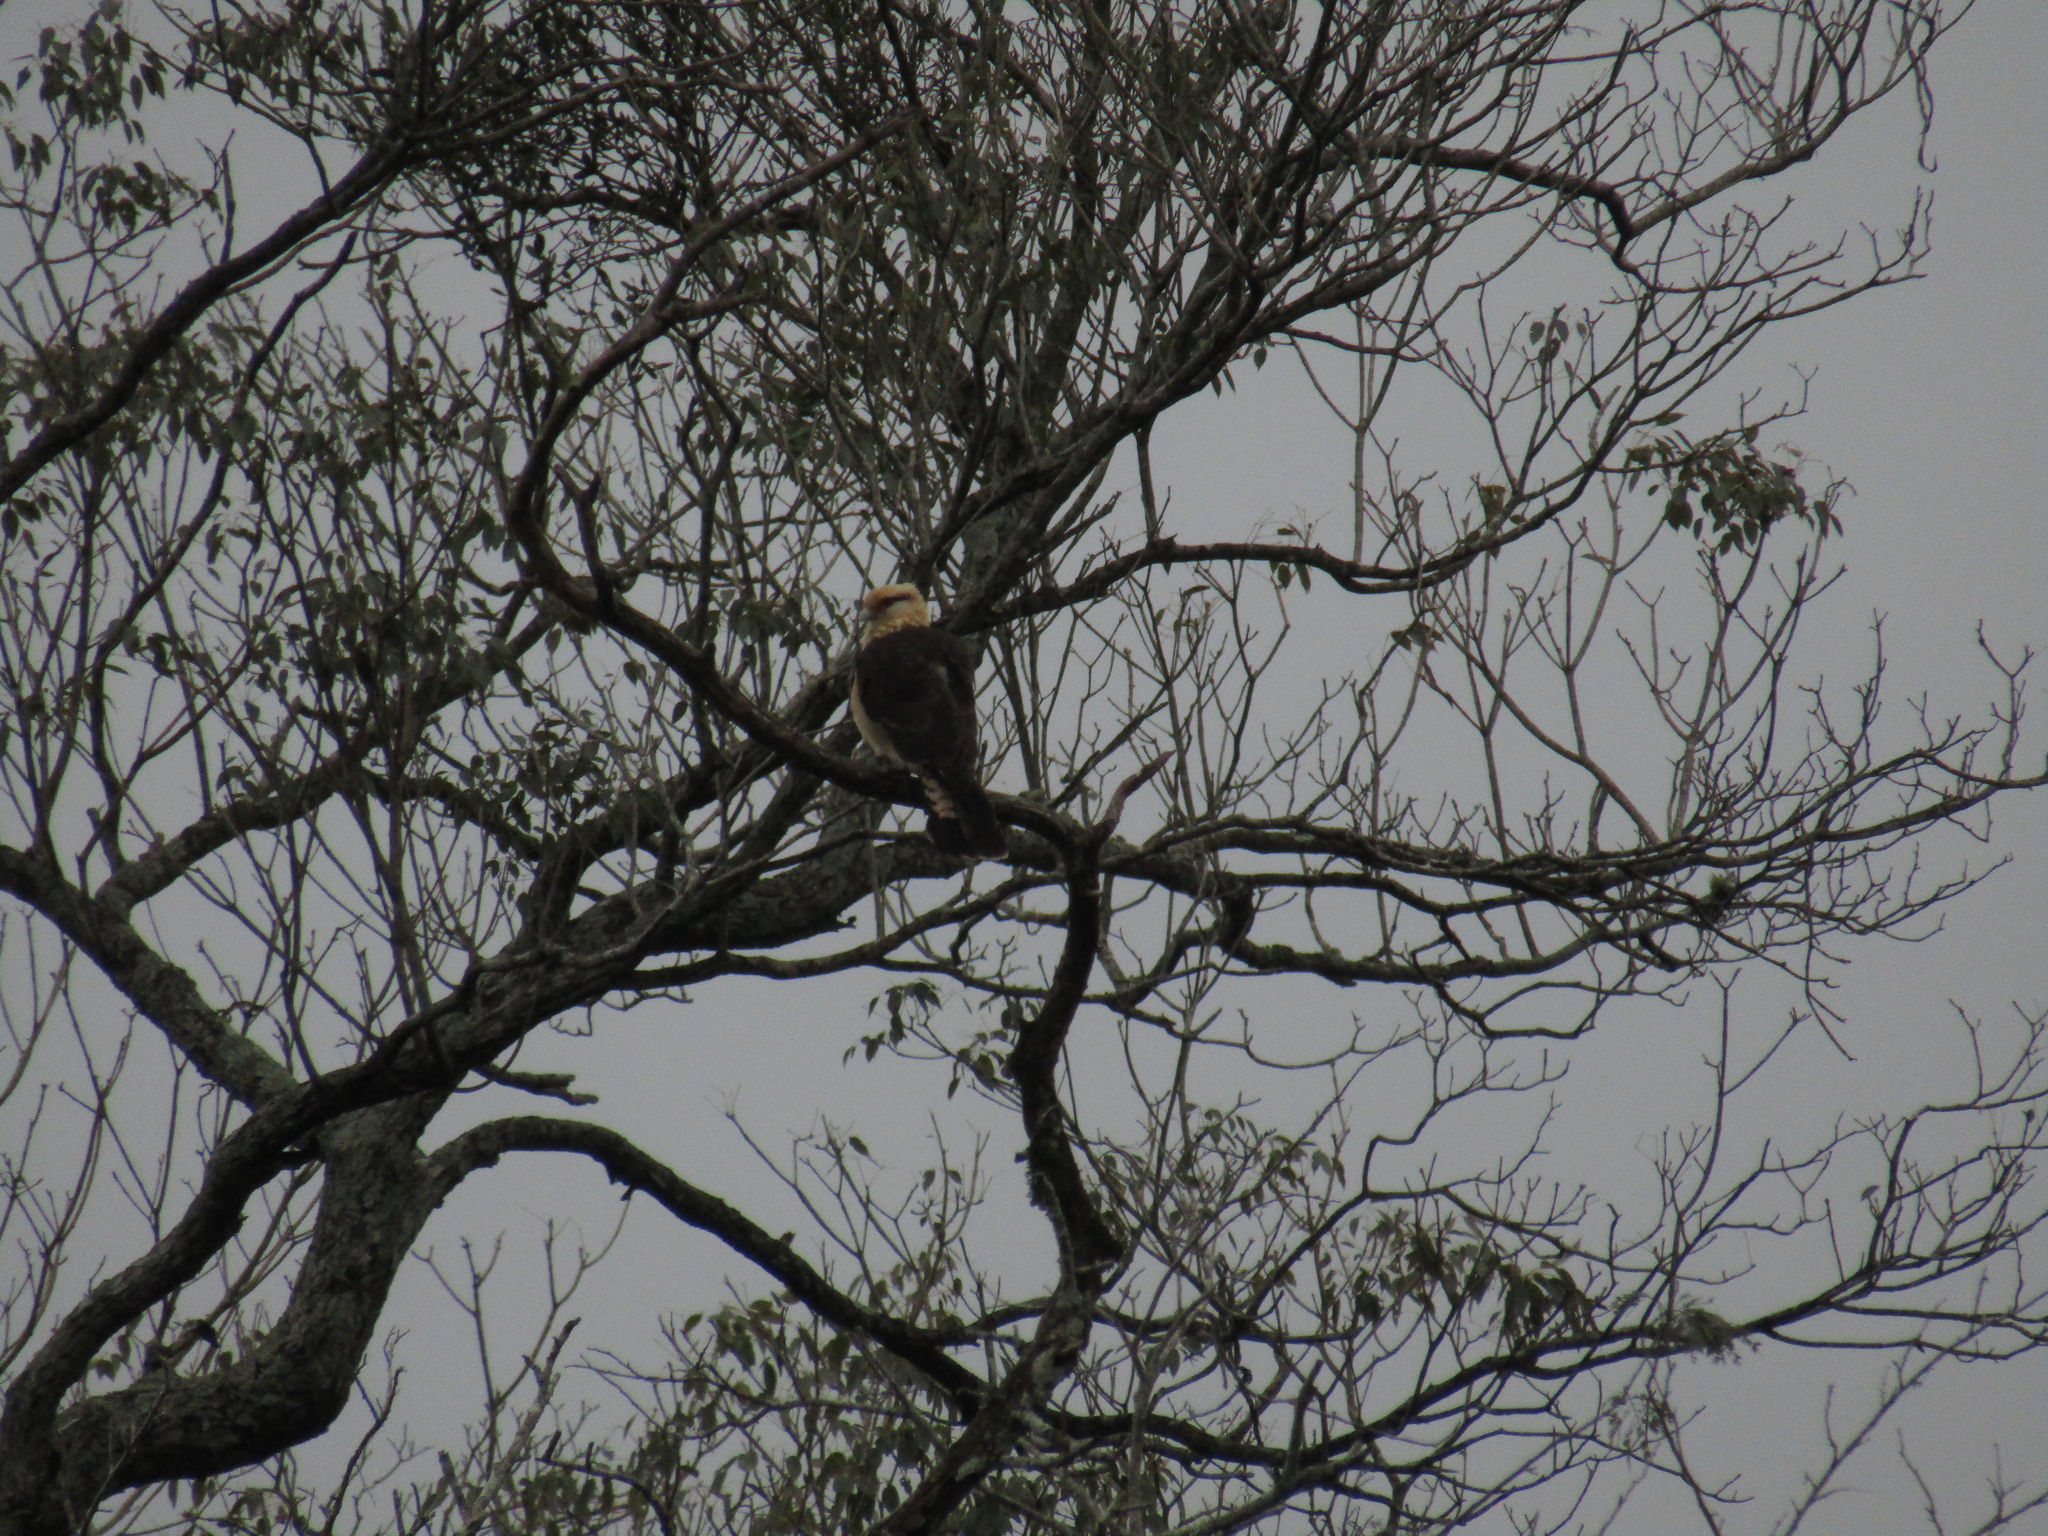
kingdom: Animalia
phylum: Chordata
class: Aves
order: Falconiformes
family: Falconidae
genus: Daptrius
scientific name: Daptrius
